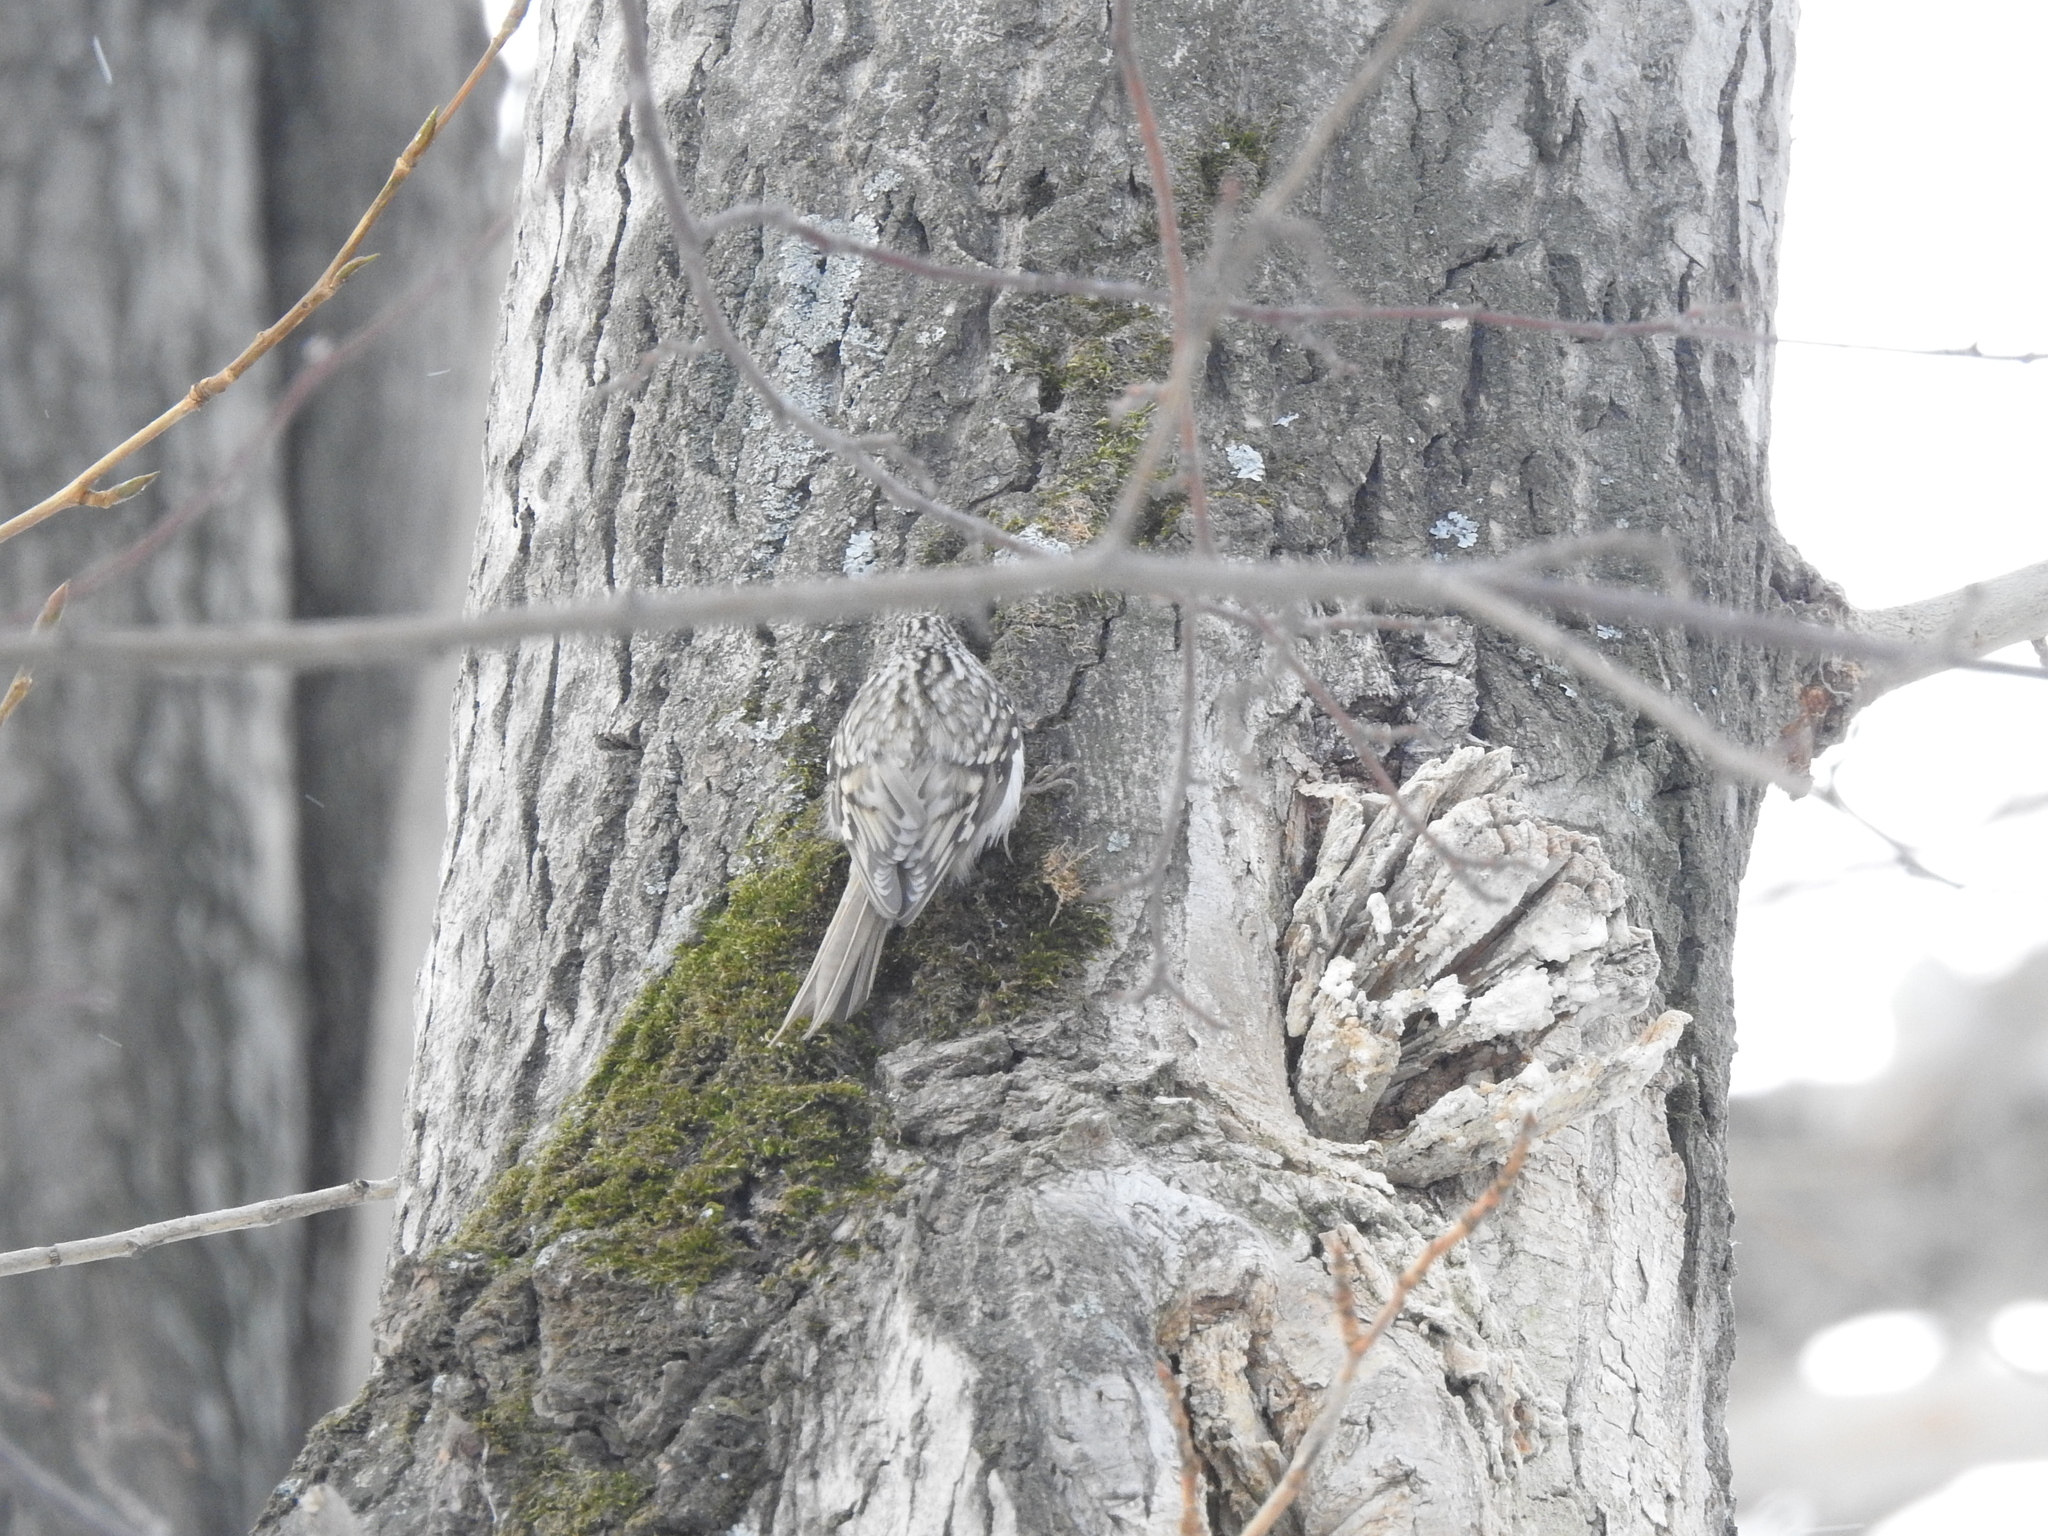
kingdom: Animalia
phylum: Chordata
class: Aves
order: Passeriformes
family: Certhiidae
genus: Certhia
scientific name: Certhia familiaris
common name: Eurasian treecreeper
